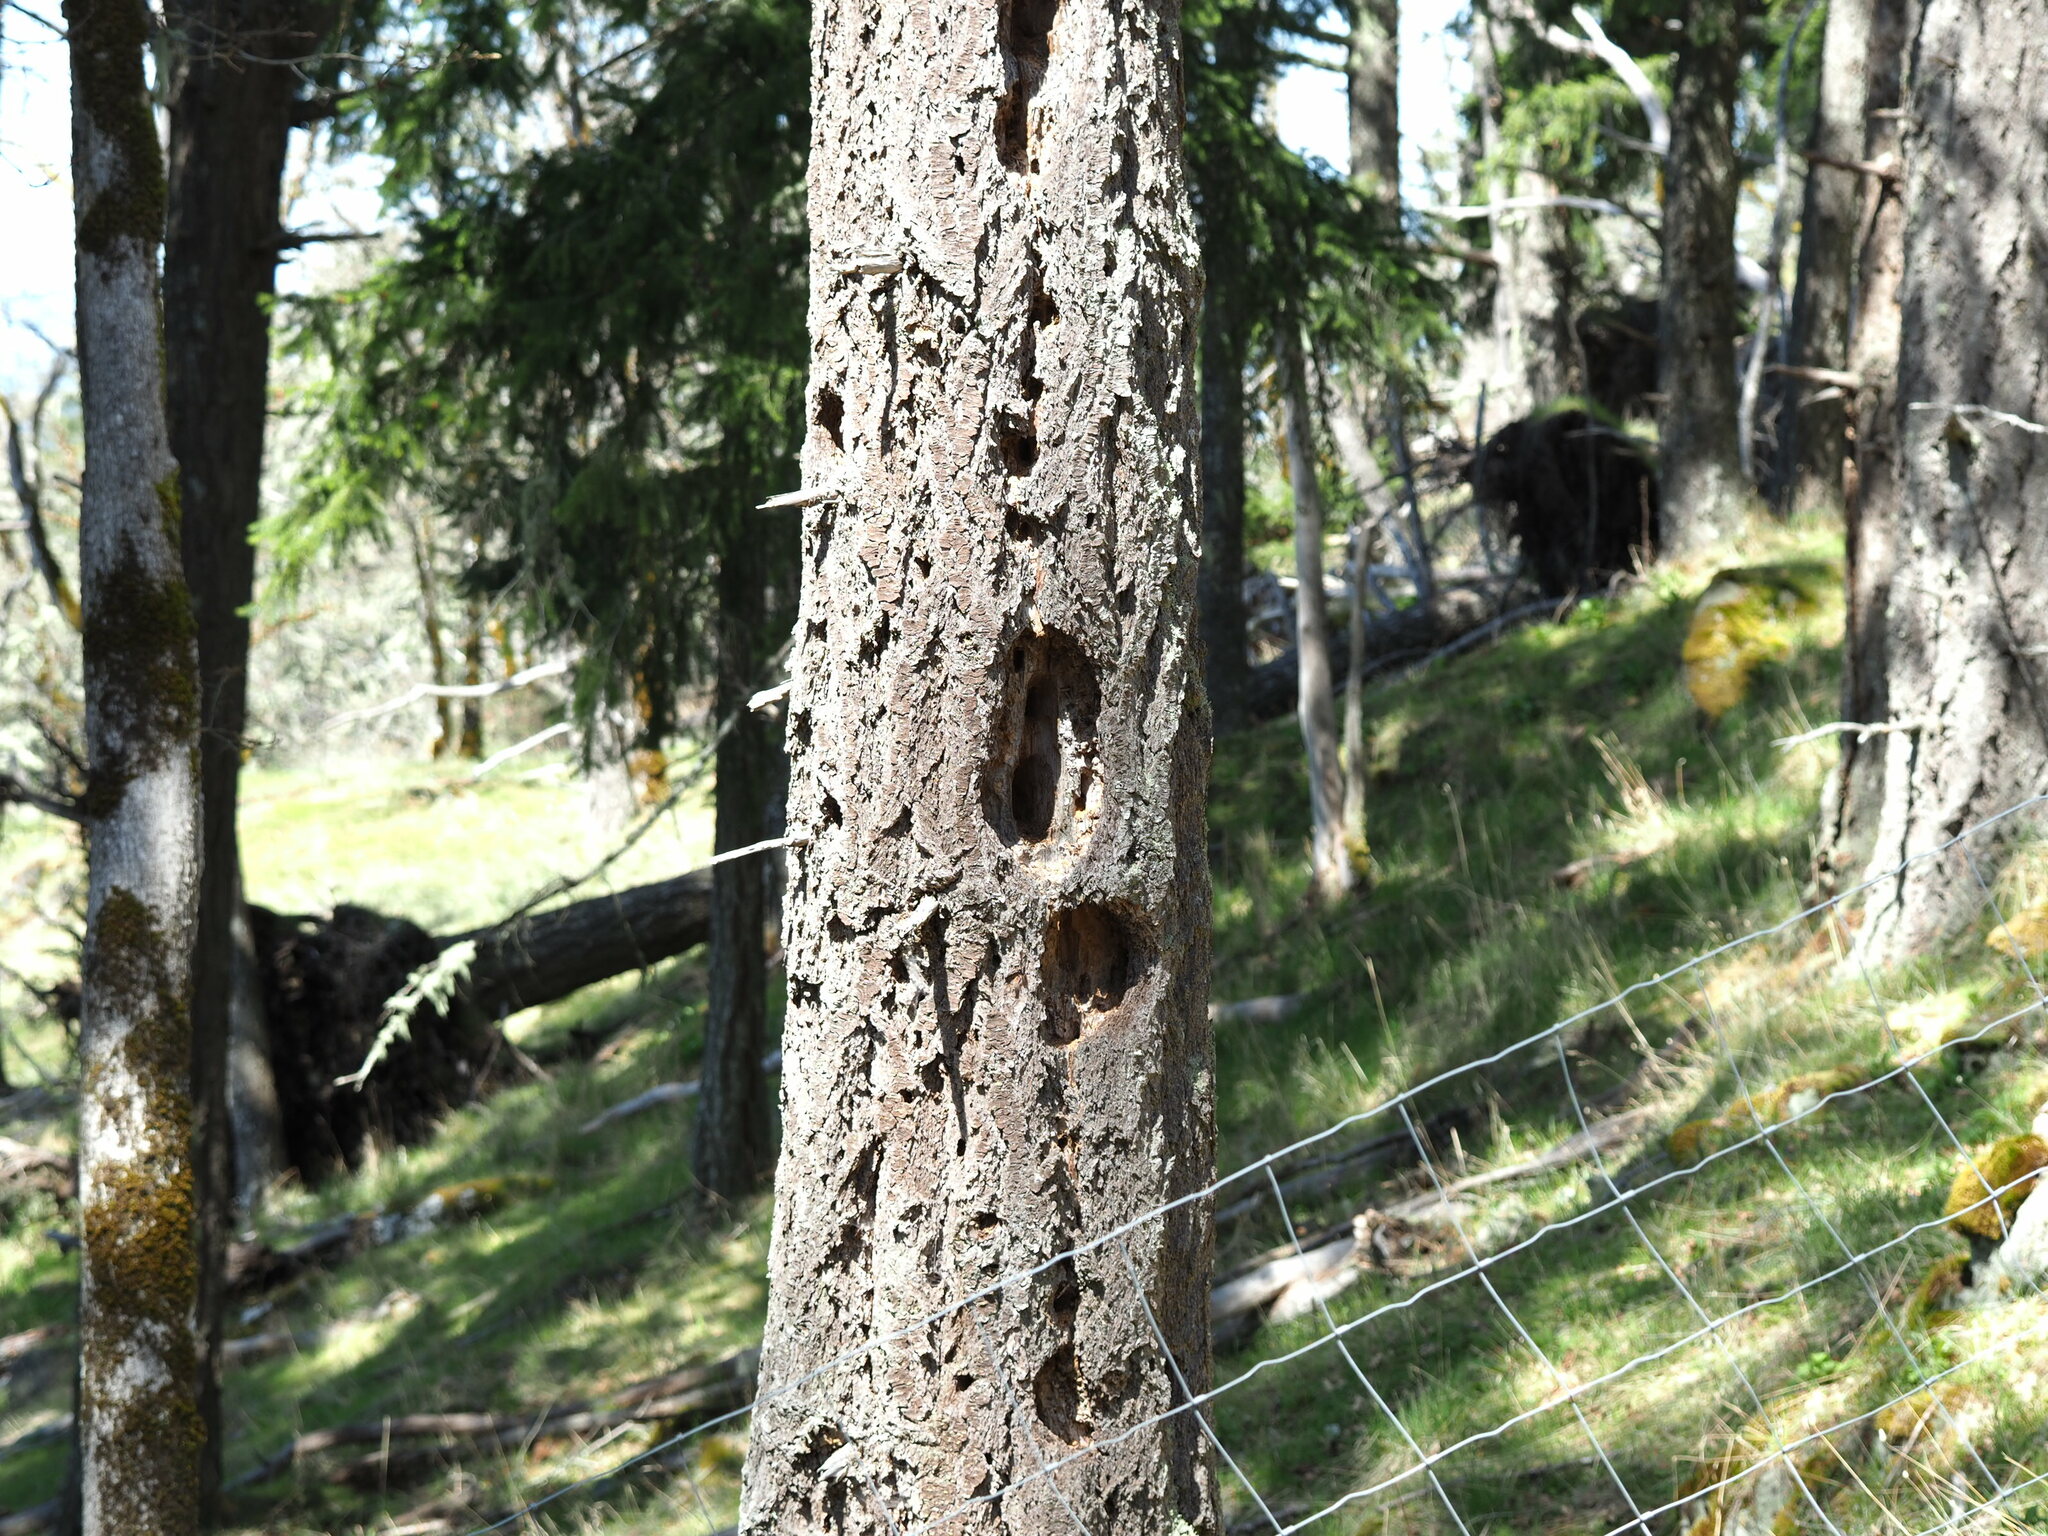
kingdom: Animalia
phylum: Chordata
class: Aves
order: Piciformes
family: Picidae
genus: Dryocopus
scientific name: Dryocopus pileatus
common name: Pileated woodpecker
